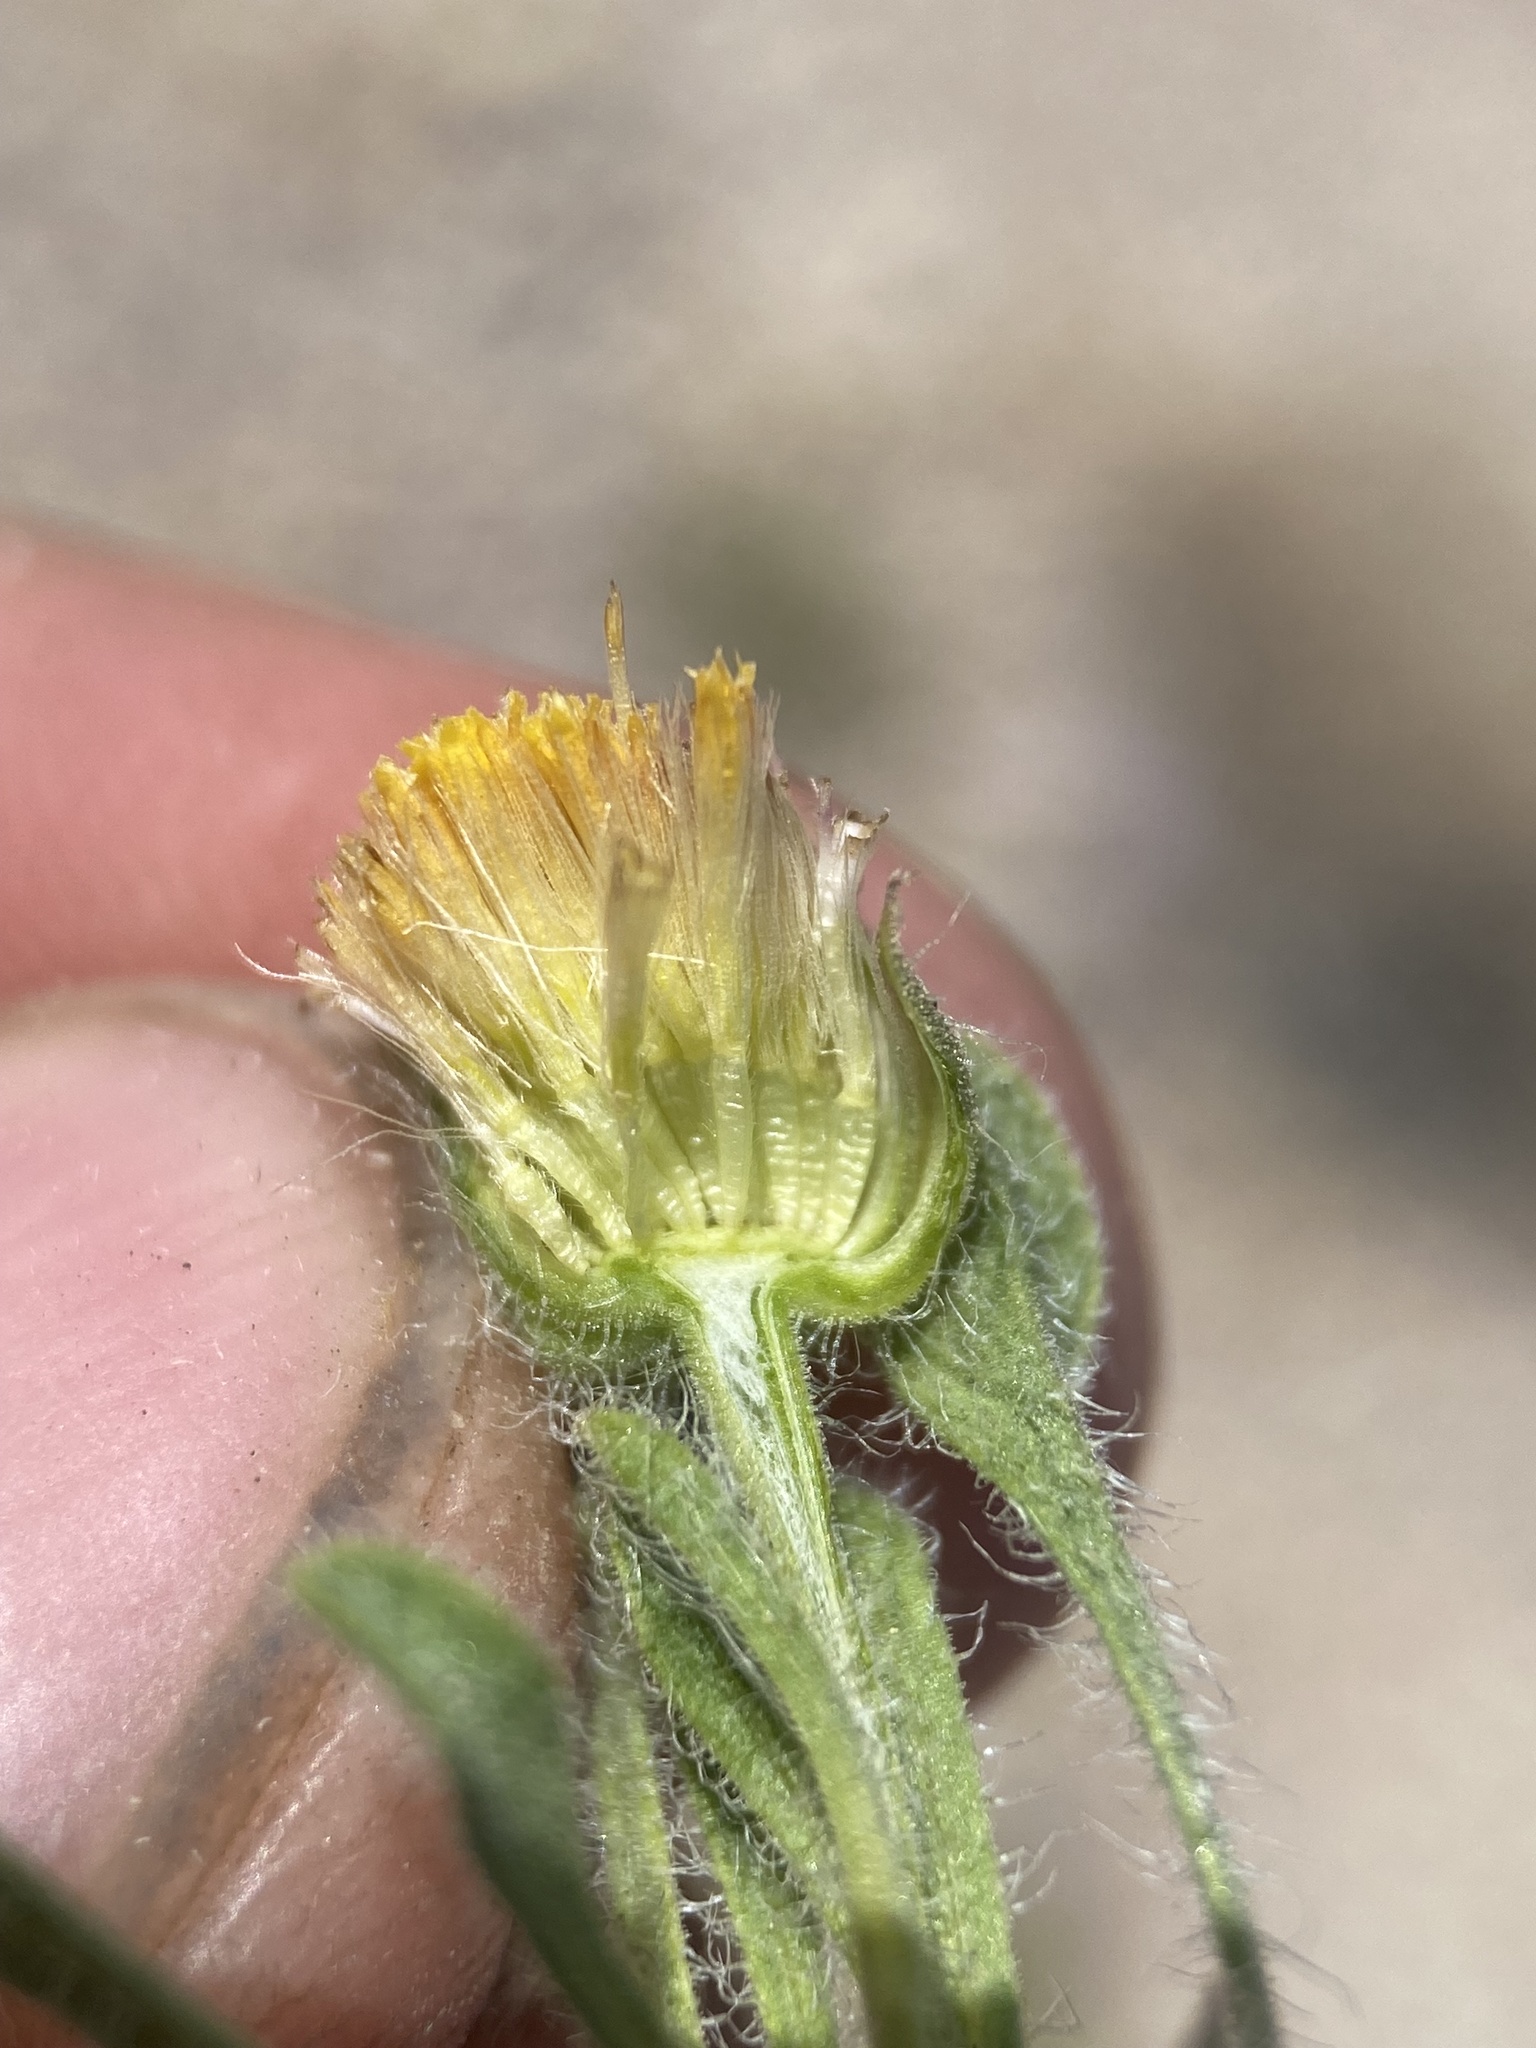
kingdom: Plantae
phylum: Tracheophyta
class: Magnoliopsida
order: Asterales
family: Asteraceae
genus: Erigeron
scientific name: Erigeron latus
